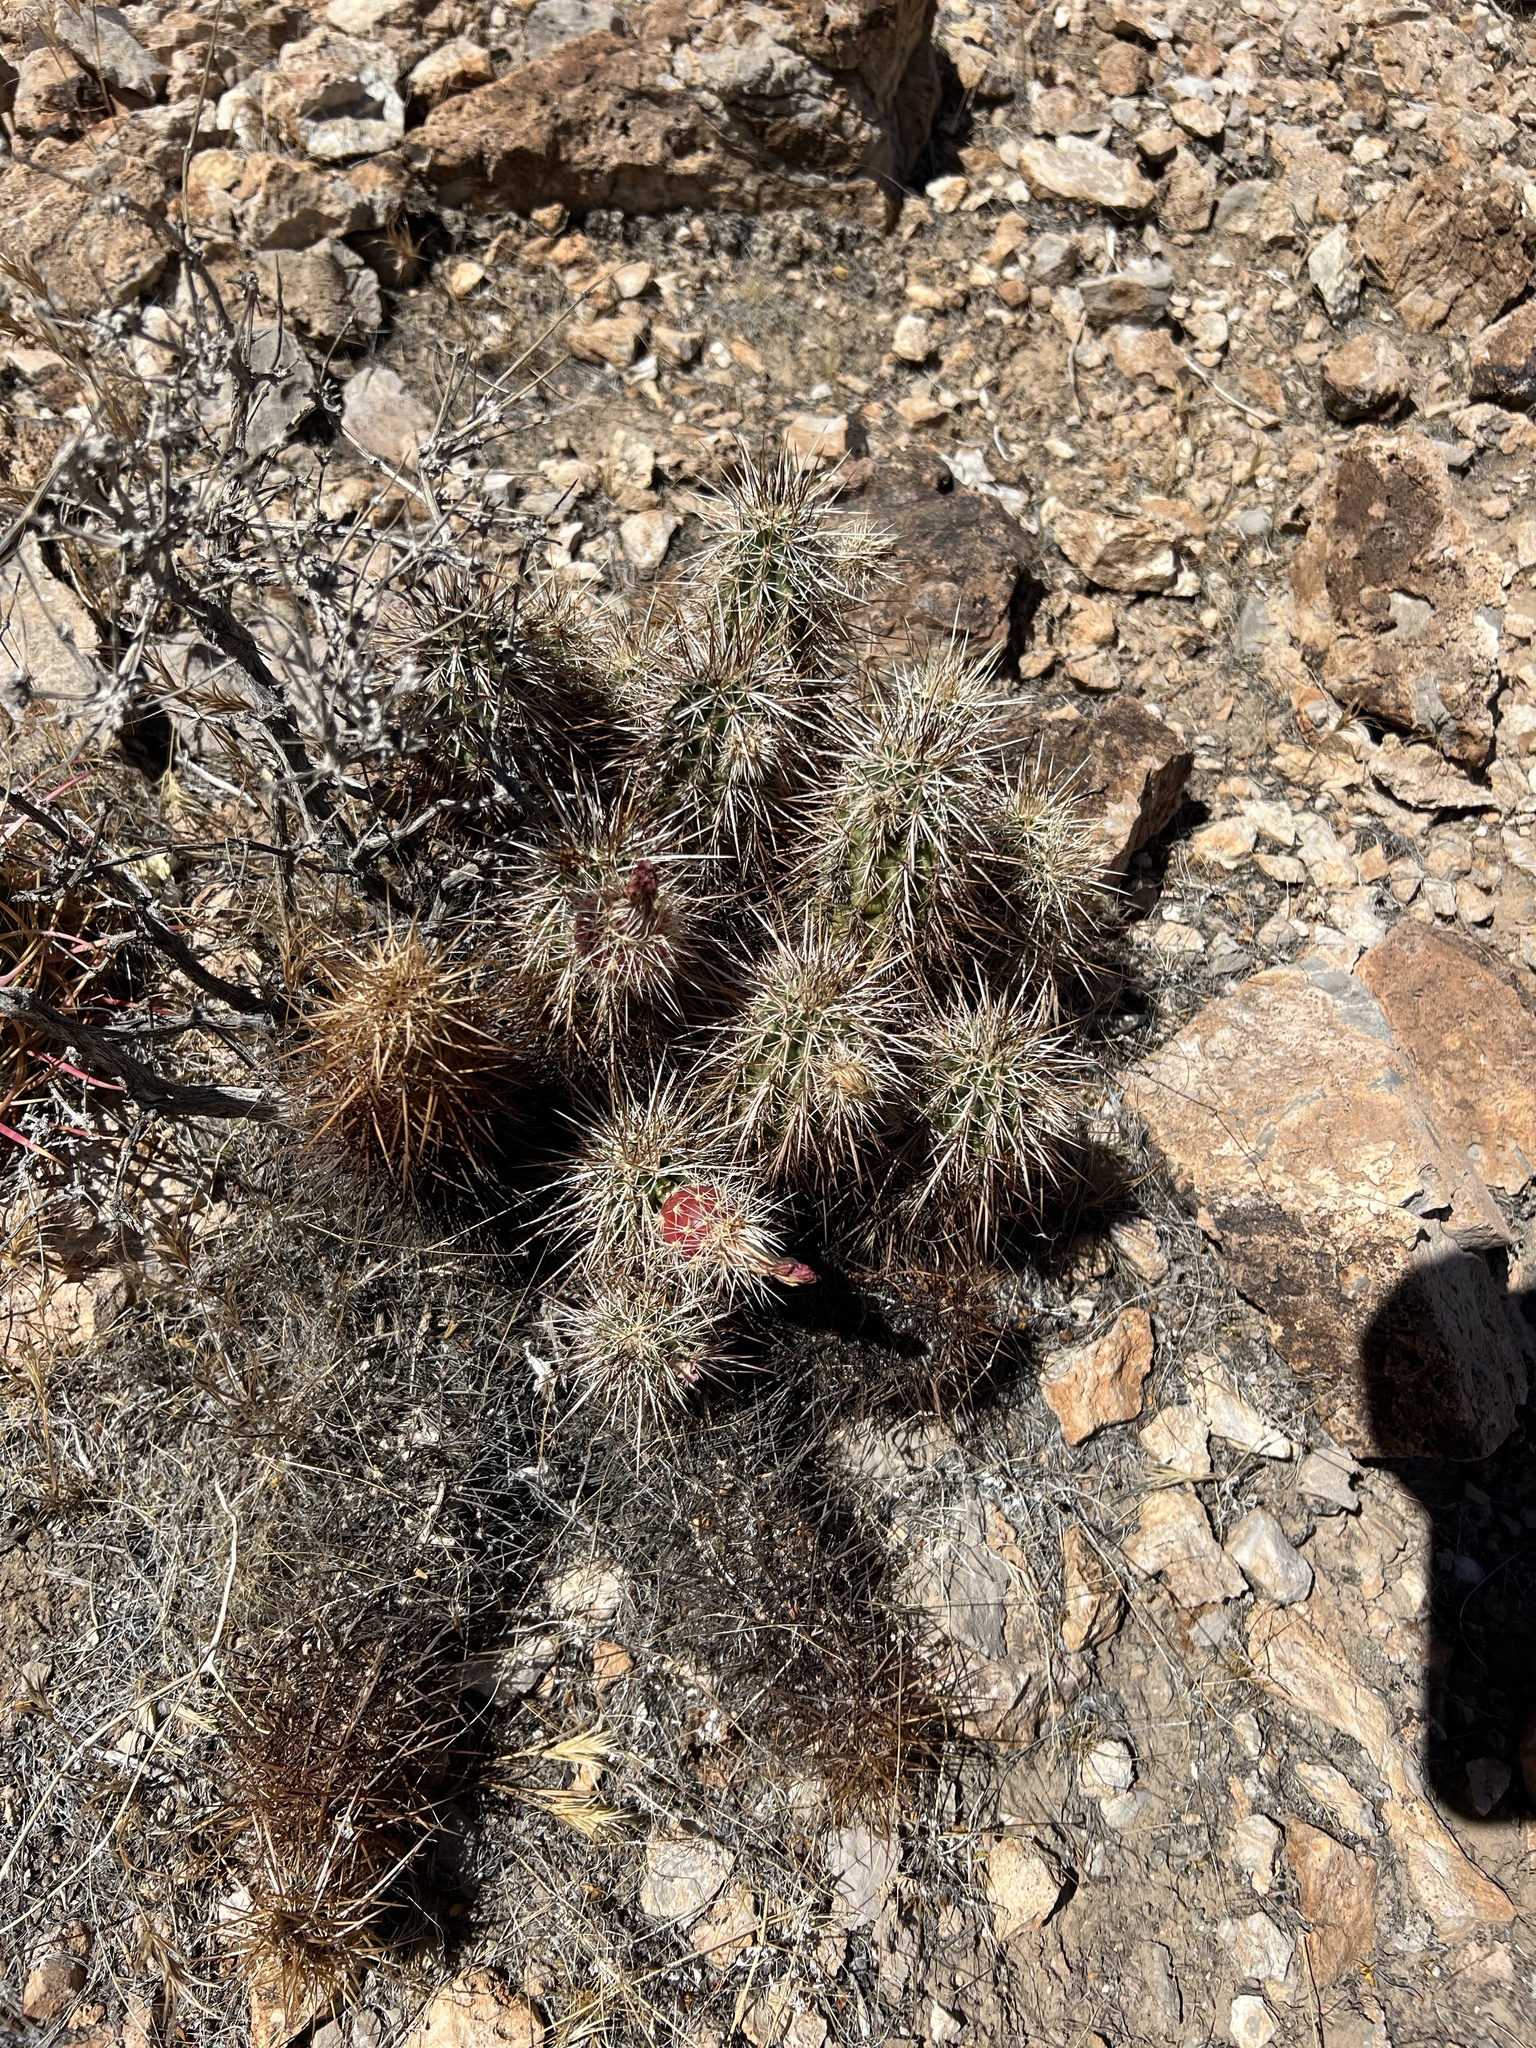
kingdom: Plantae
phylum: Tracheophyta
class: Magnoliopsida
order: Caryophyllales
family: Cactaceae
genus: Echinocereus
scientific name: Echinocereus engelmannii
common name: Engelmann's hedgehog cactus
